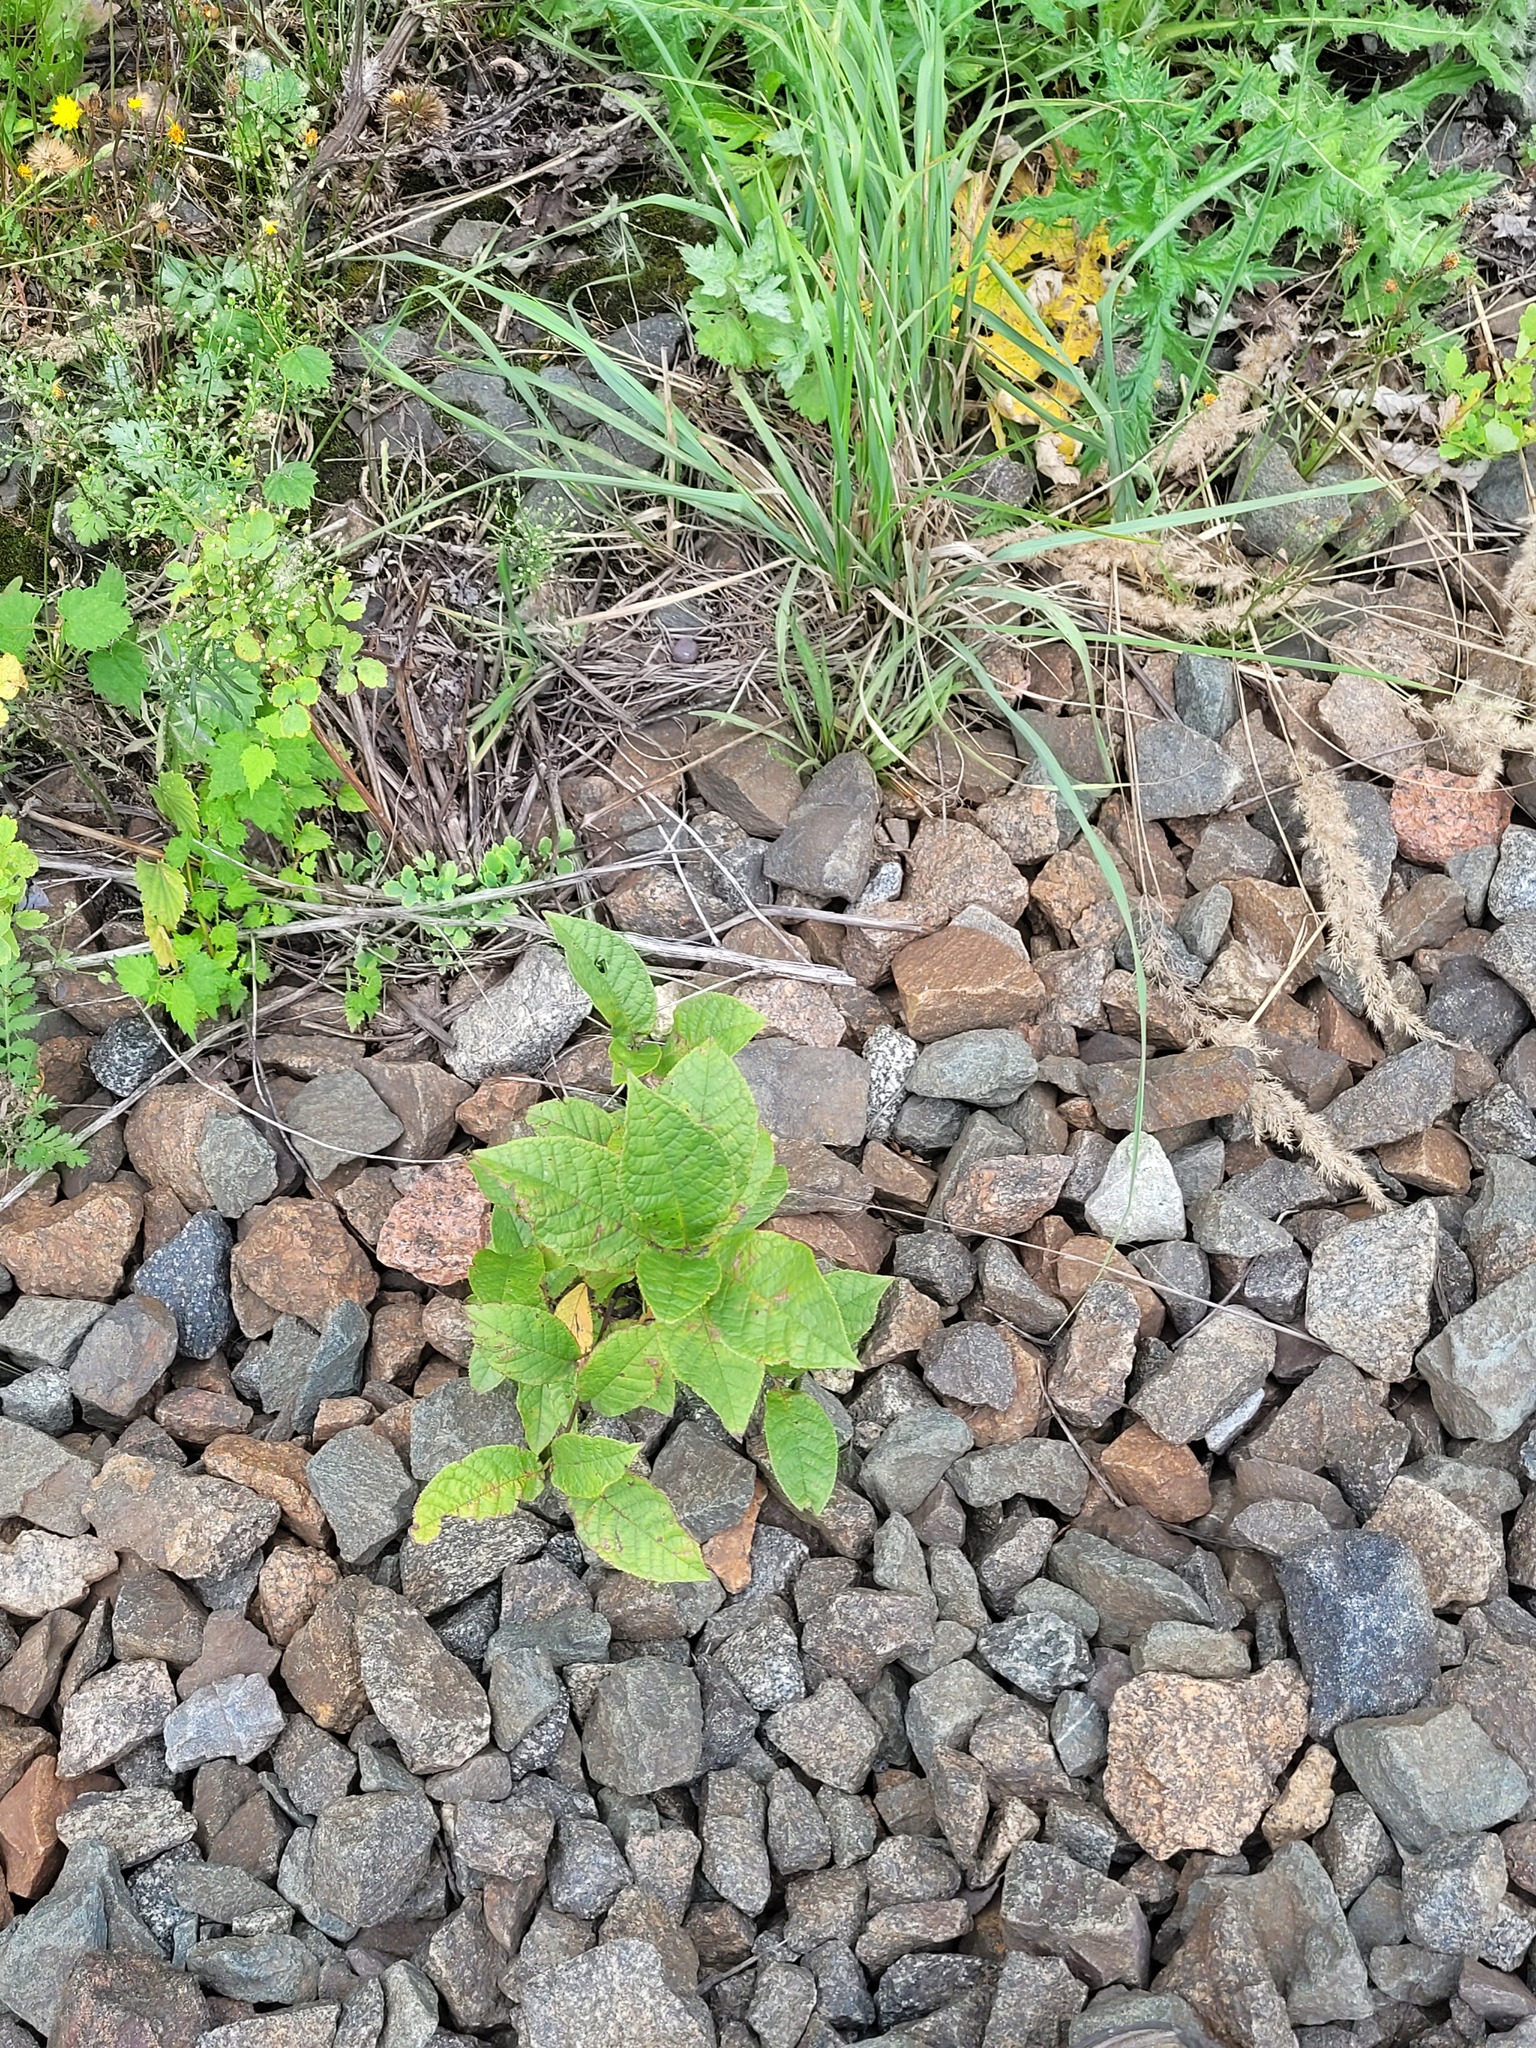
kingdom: Plantae
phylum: Tracheophyta
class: Magnoliopsida
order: Rosales
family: Rosaceae
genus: Prunus
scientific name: Prunus padus
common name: Bird cherry
